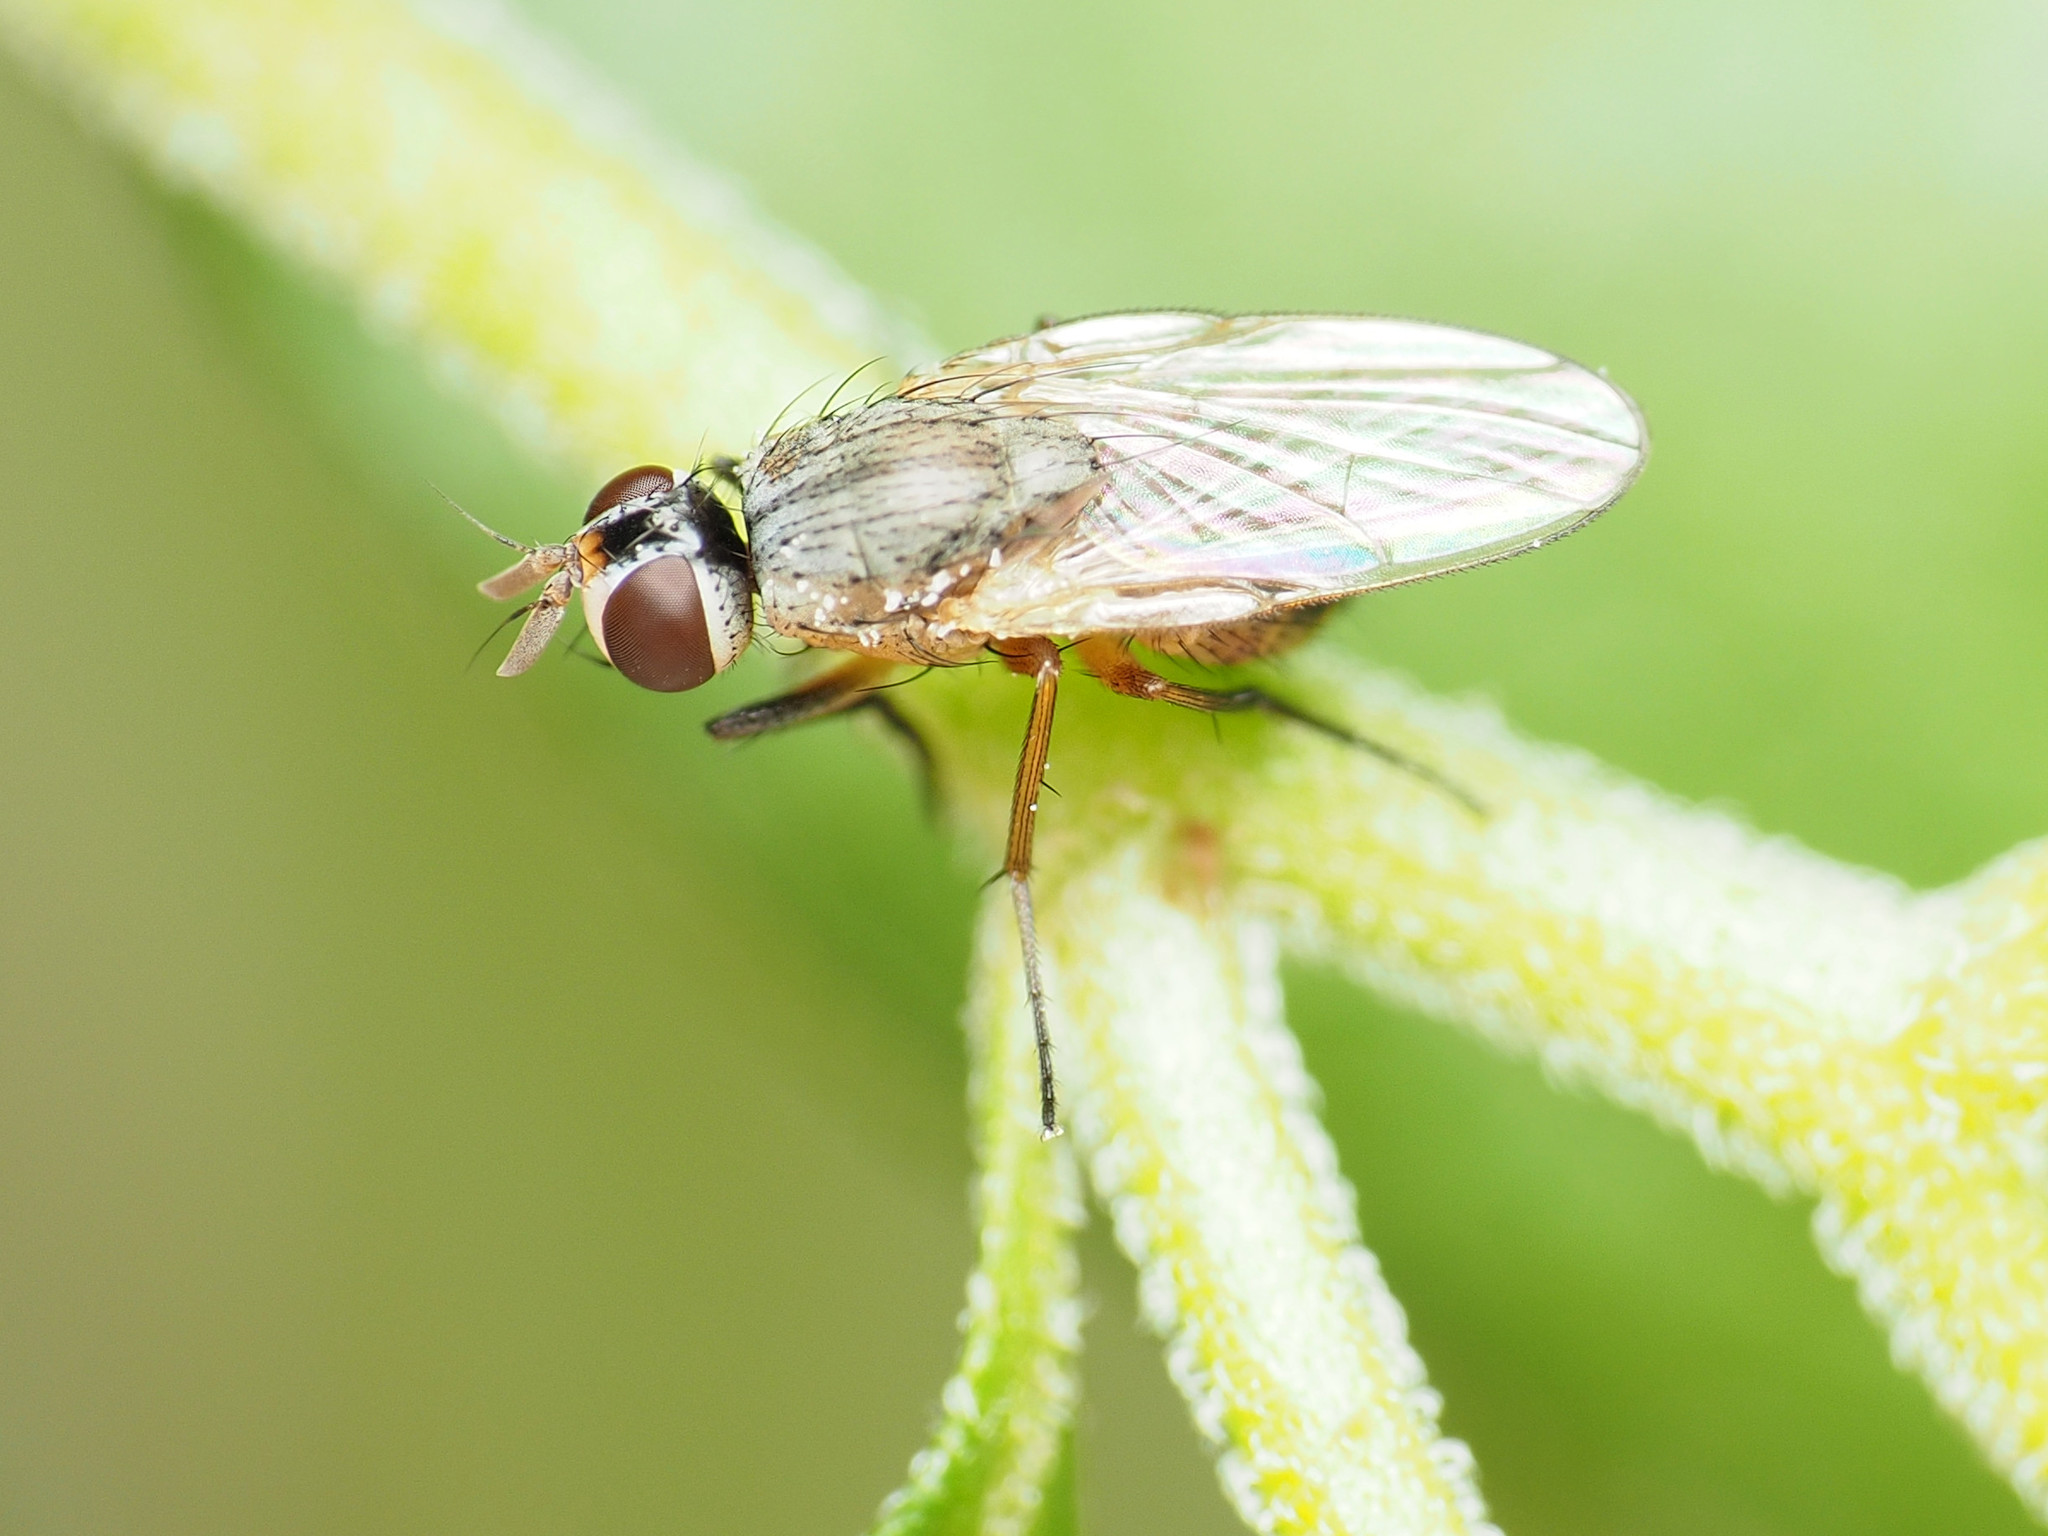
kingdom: Animalia
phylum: Arthropoda
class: Insecta
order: Diptera
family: Muscidae
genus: Atherigona
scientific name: Atherigona reversura
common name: Bermudagrass stem maggot
